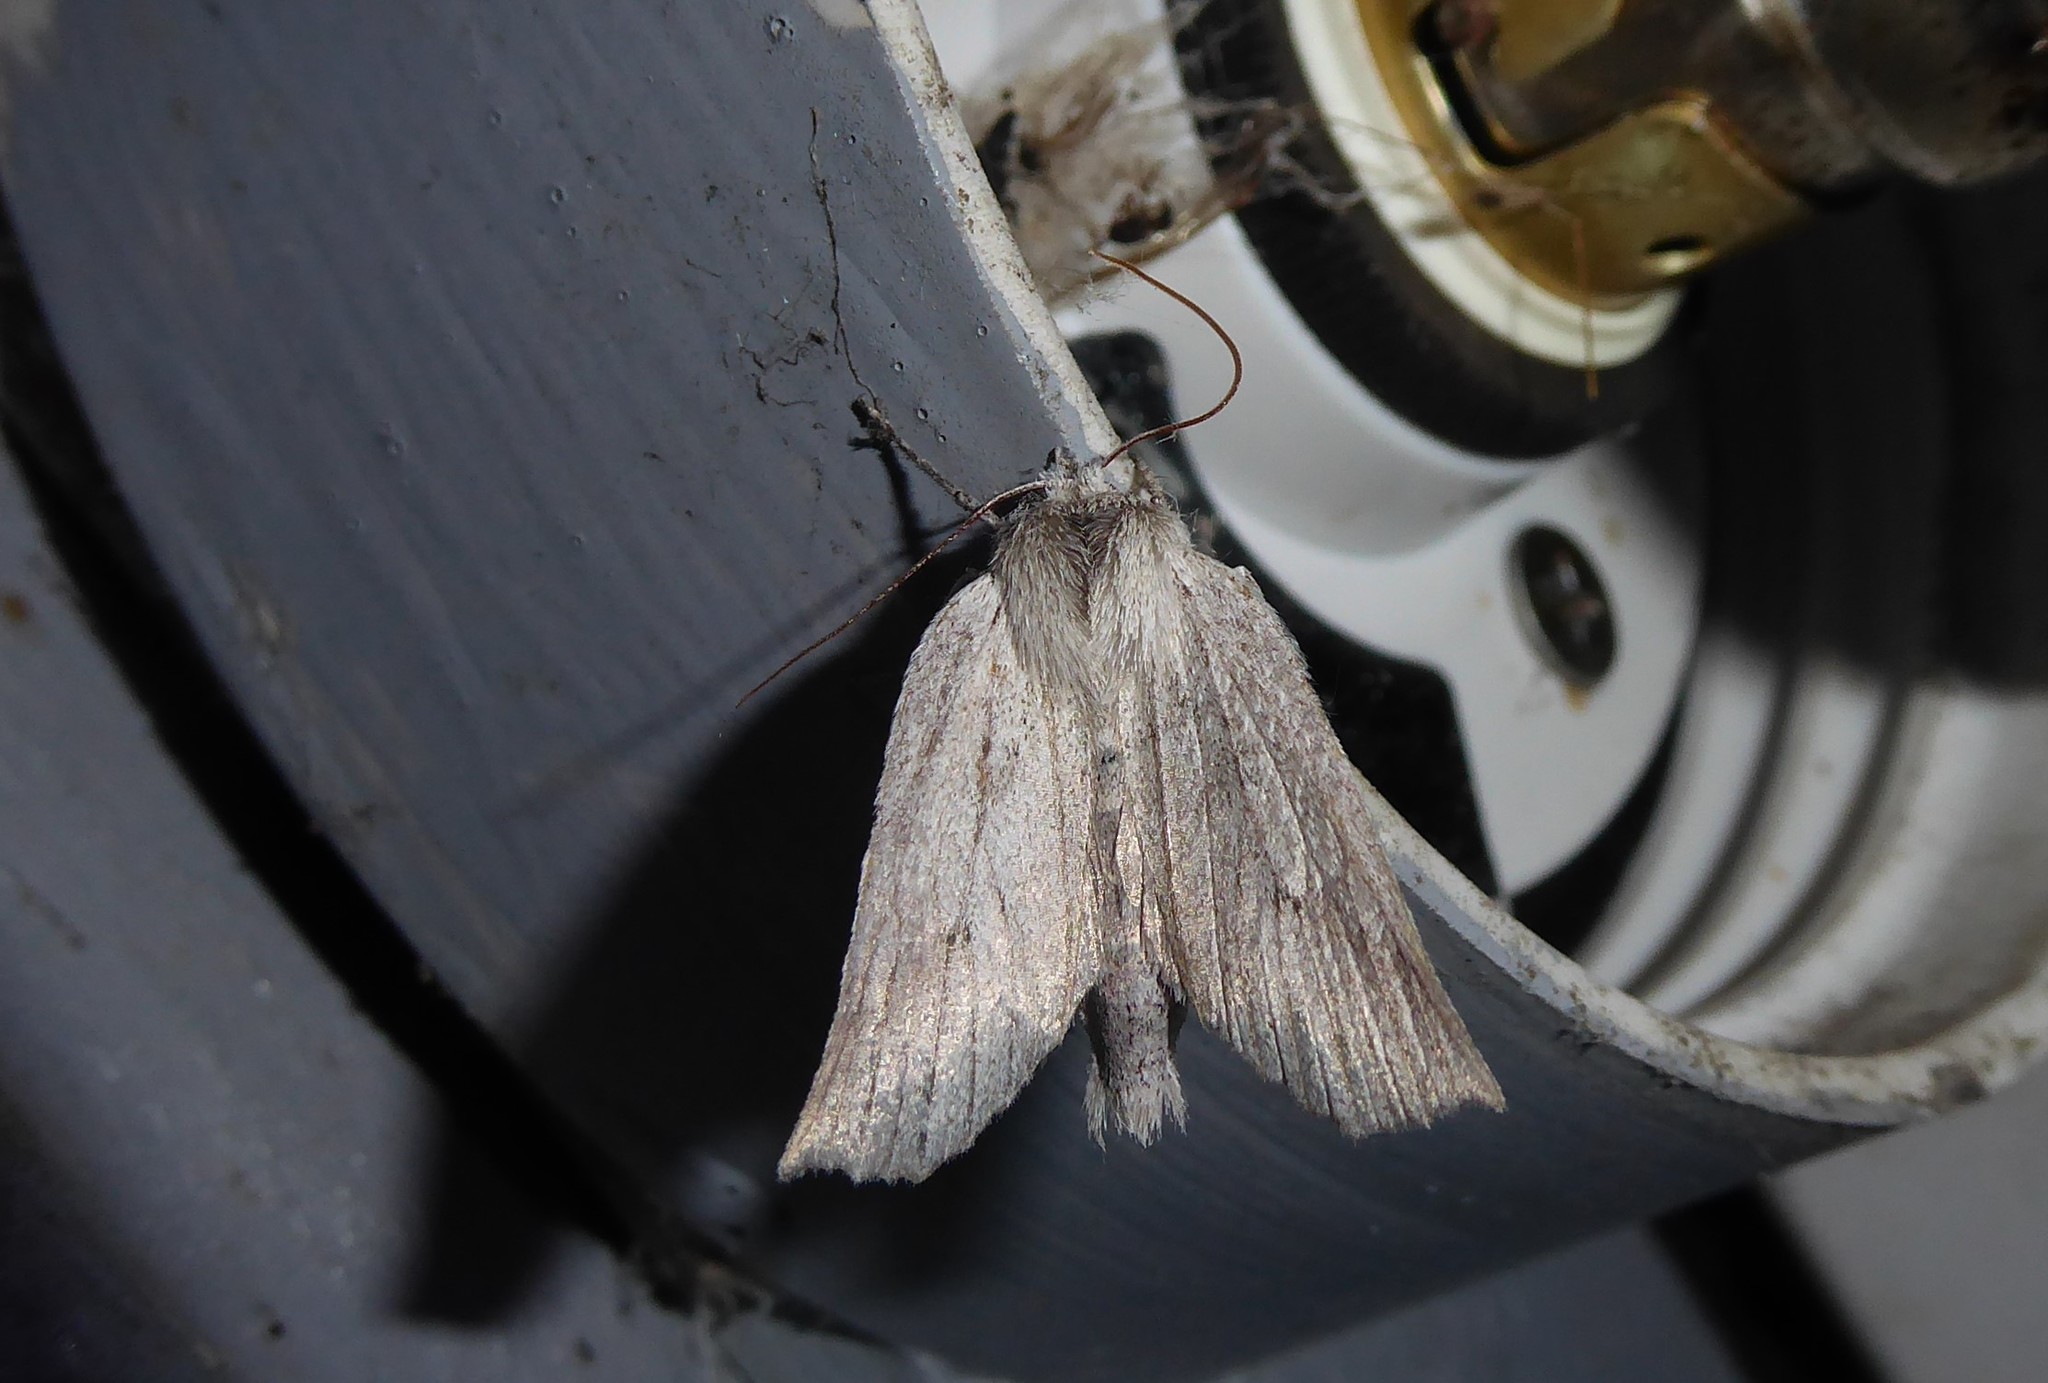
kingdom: Animalia
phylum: Arthropoda
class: Insecta
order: Lepidoptera
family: Geometridae
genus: Declana
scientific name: Declana leptomera
